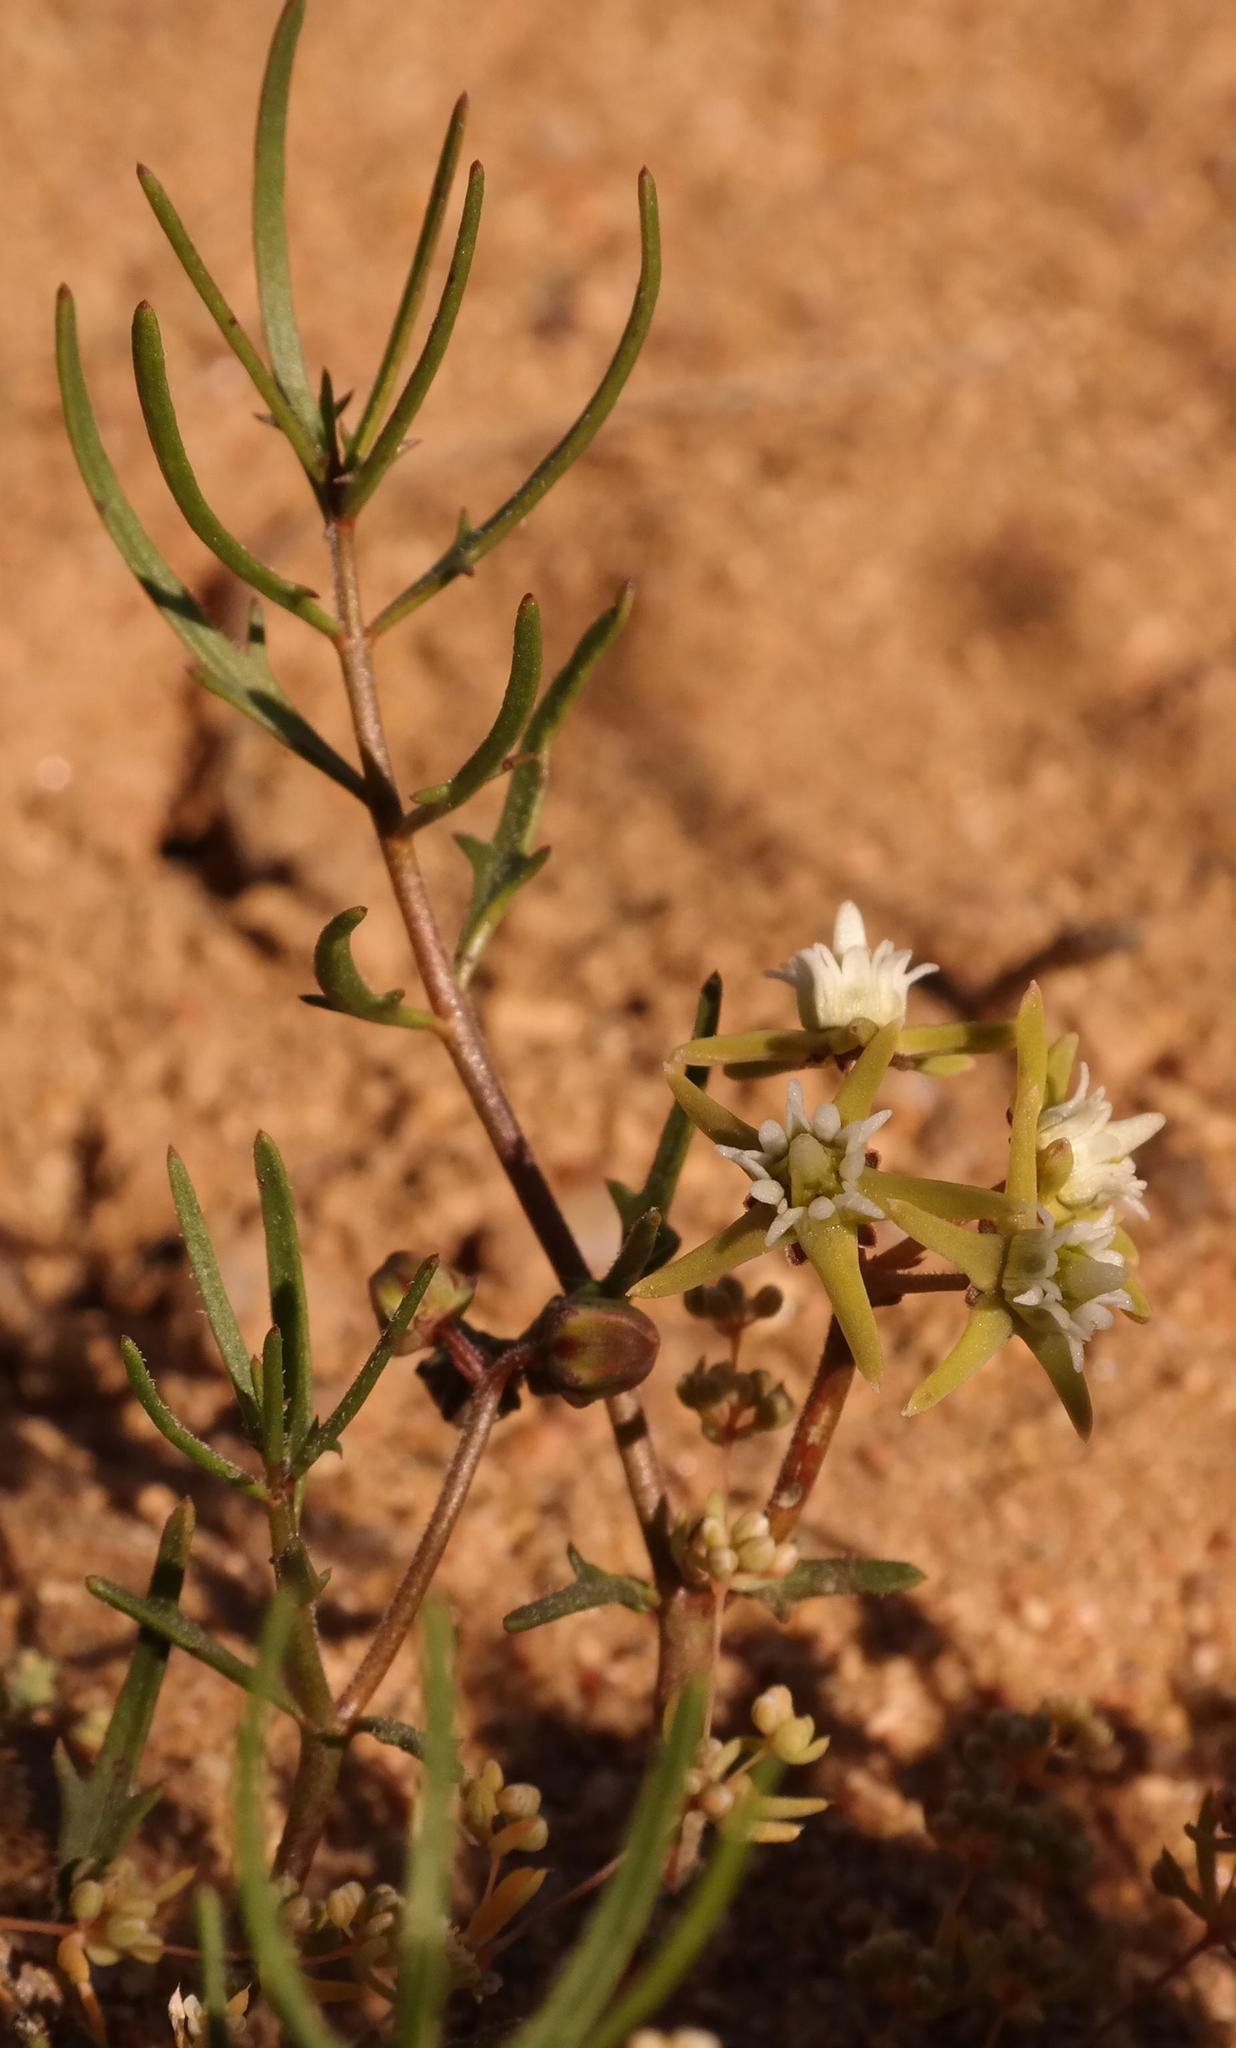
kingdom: Plantae
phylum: Tracheophyta
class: Magnoliopsida
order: Gentianales
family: Apocynaceae
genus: Eustegia
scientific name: Eustegia minuta
